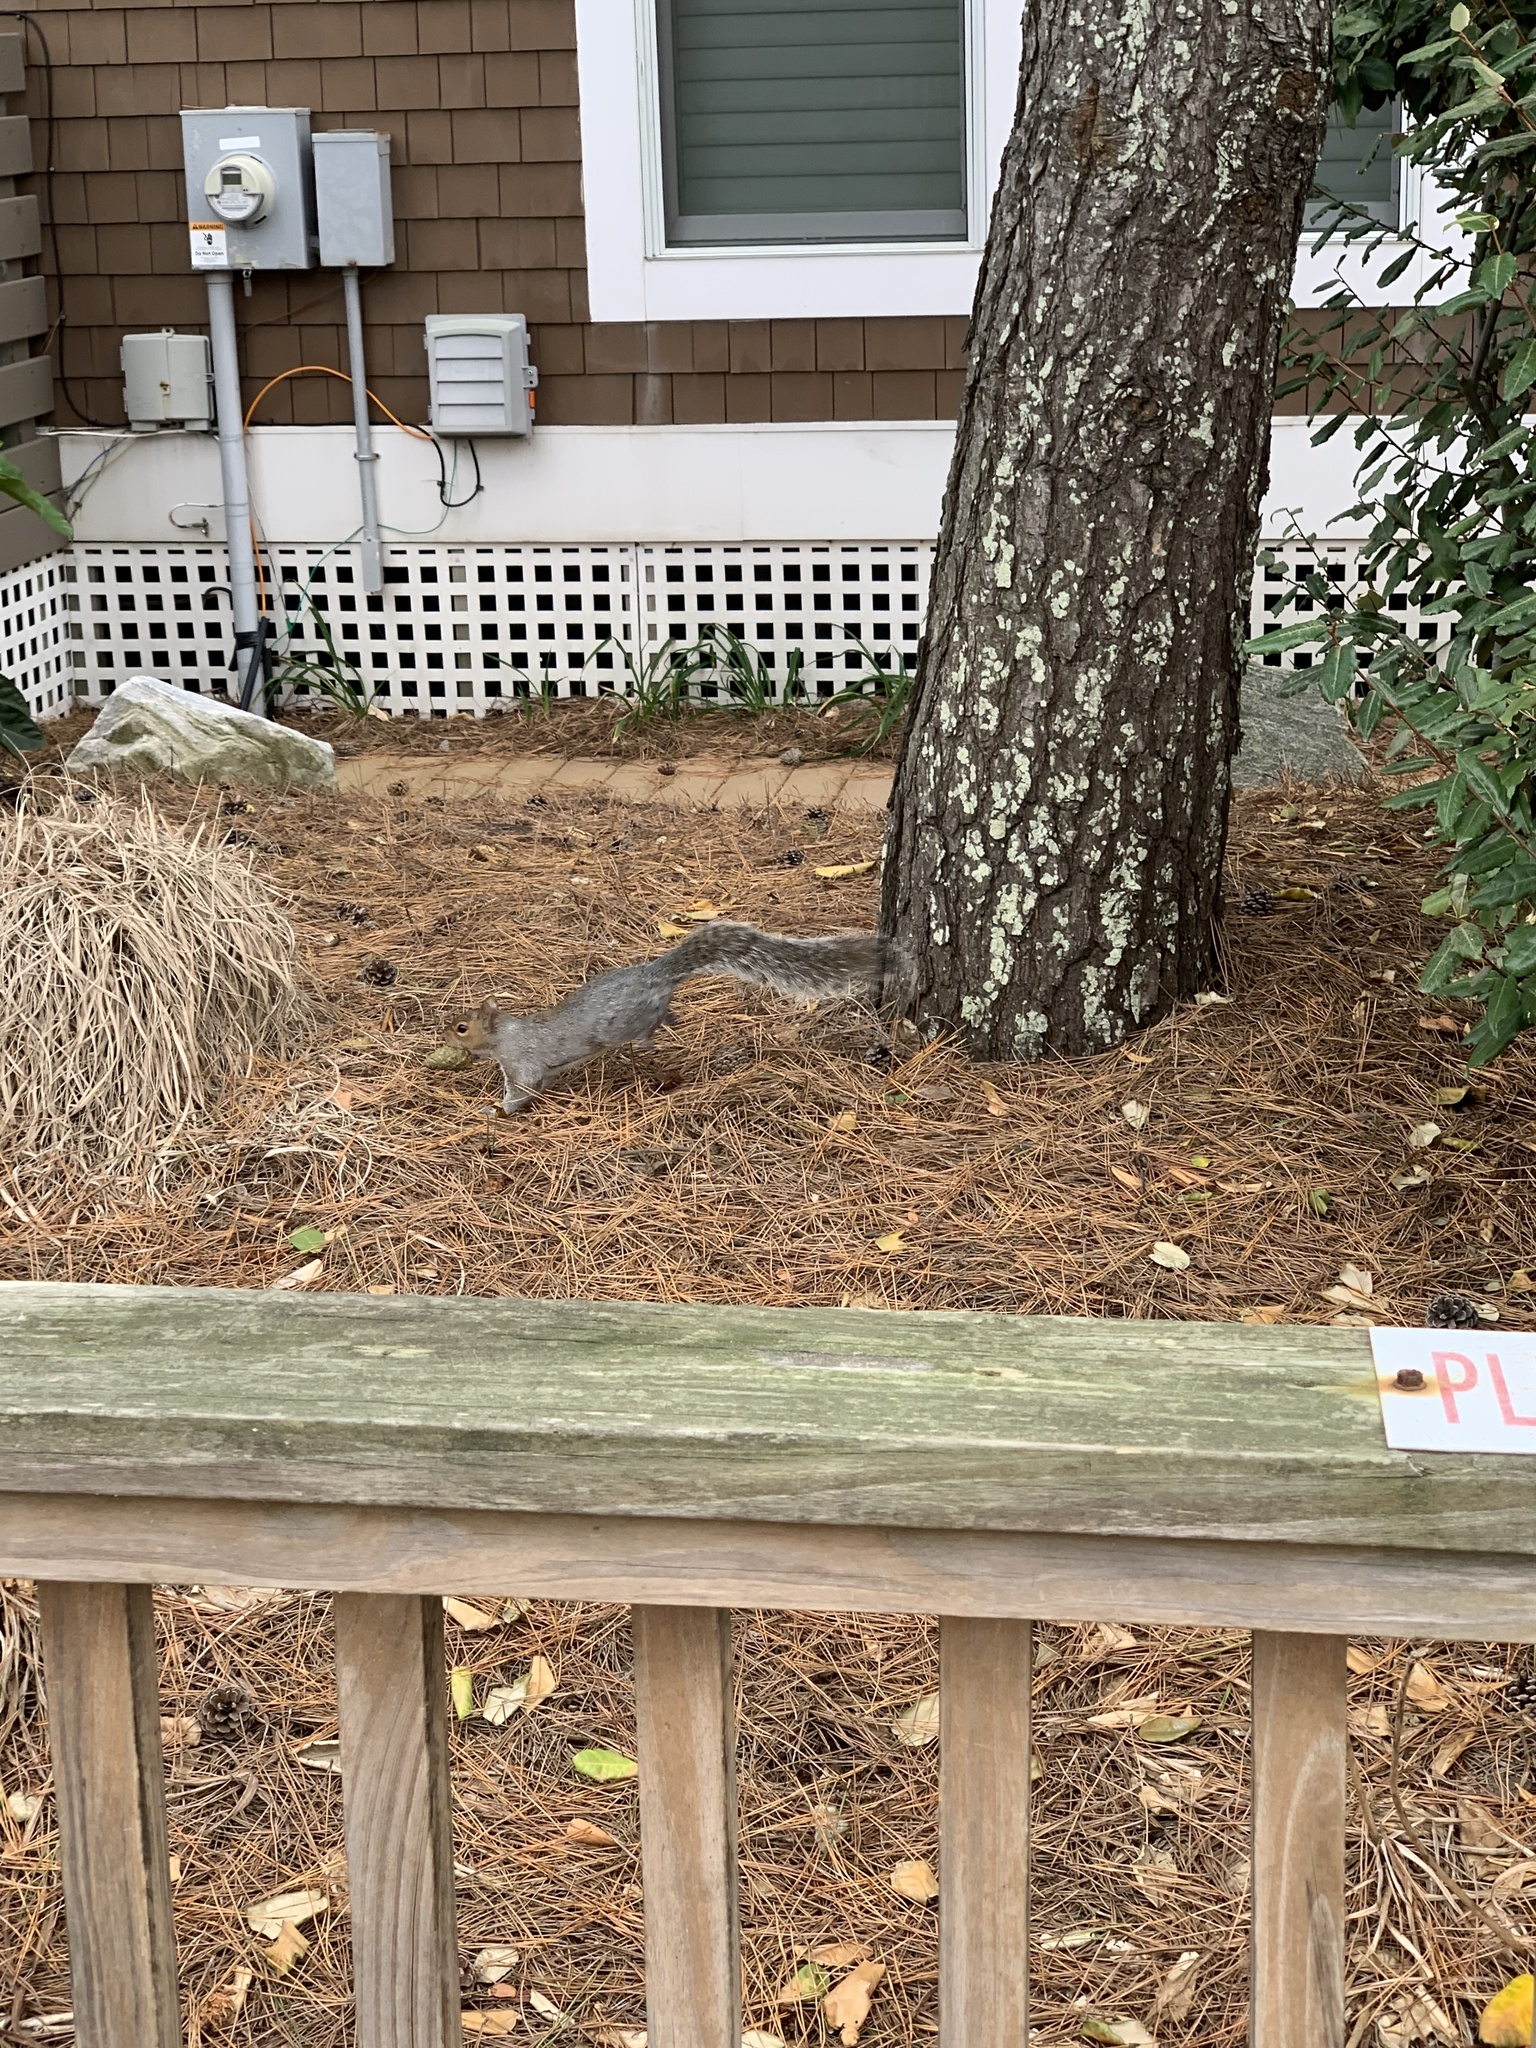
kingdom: Animalia
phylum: Chordata
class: Mammalia
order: Rodentia
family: Sciuridae
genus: Sciurus
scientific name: Sciurus carolinensis
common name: Eastern gray squirrel
